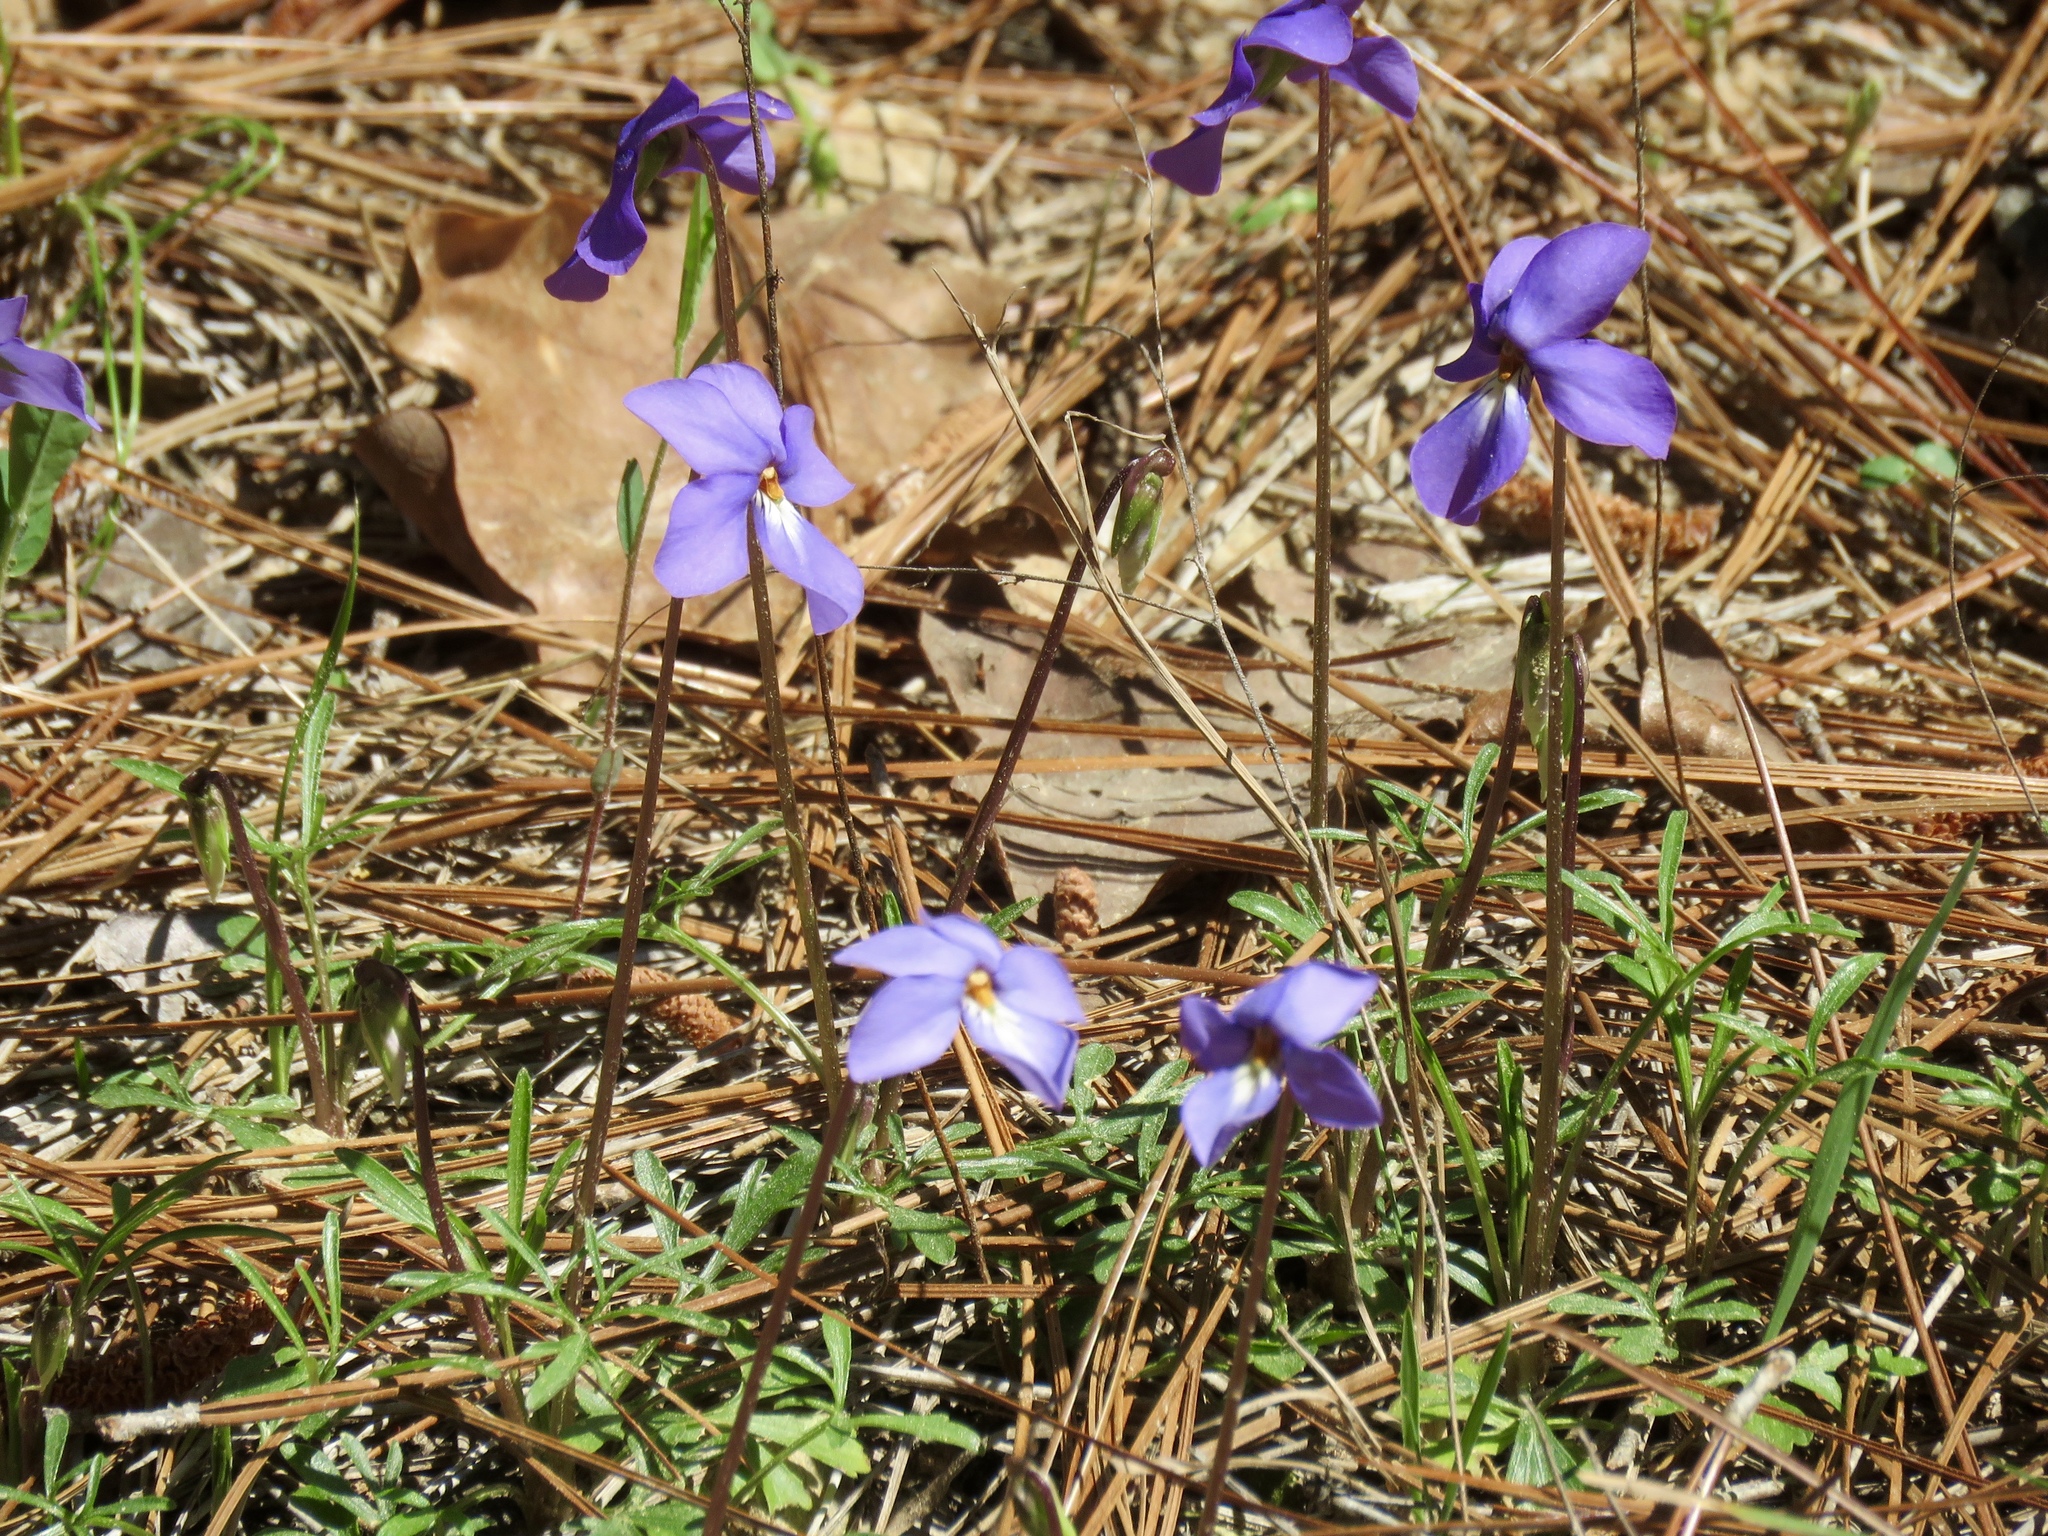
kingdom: Plantae
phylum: Tracheophyta
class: Magnoliopsida
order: Malpighiales
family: Violaceae
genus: Viola
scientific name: Viola pedata
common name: Pansy violet
